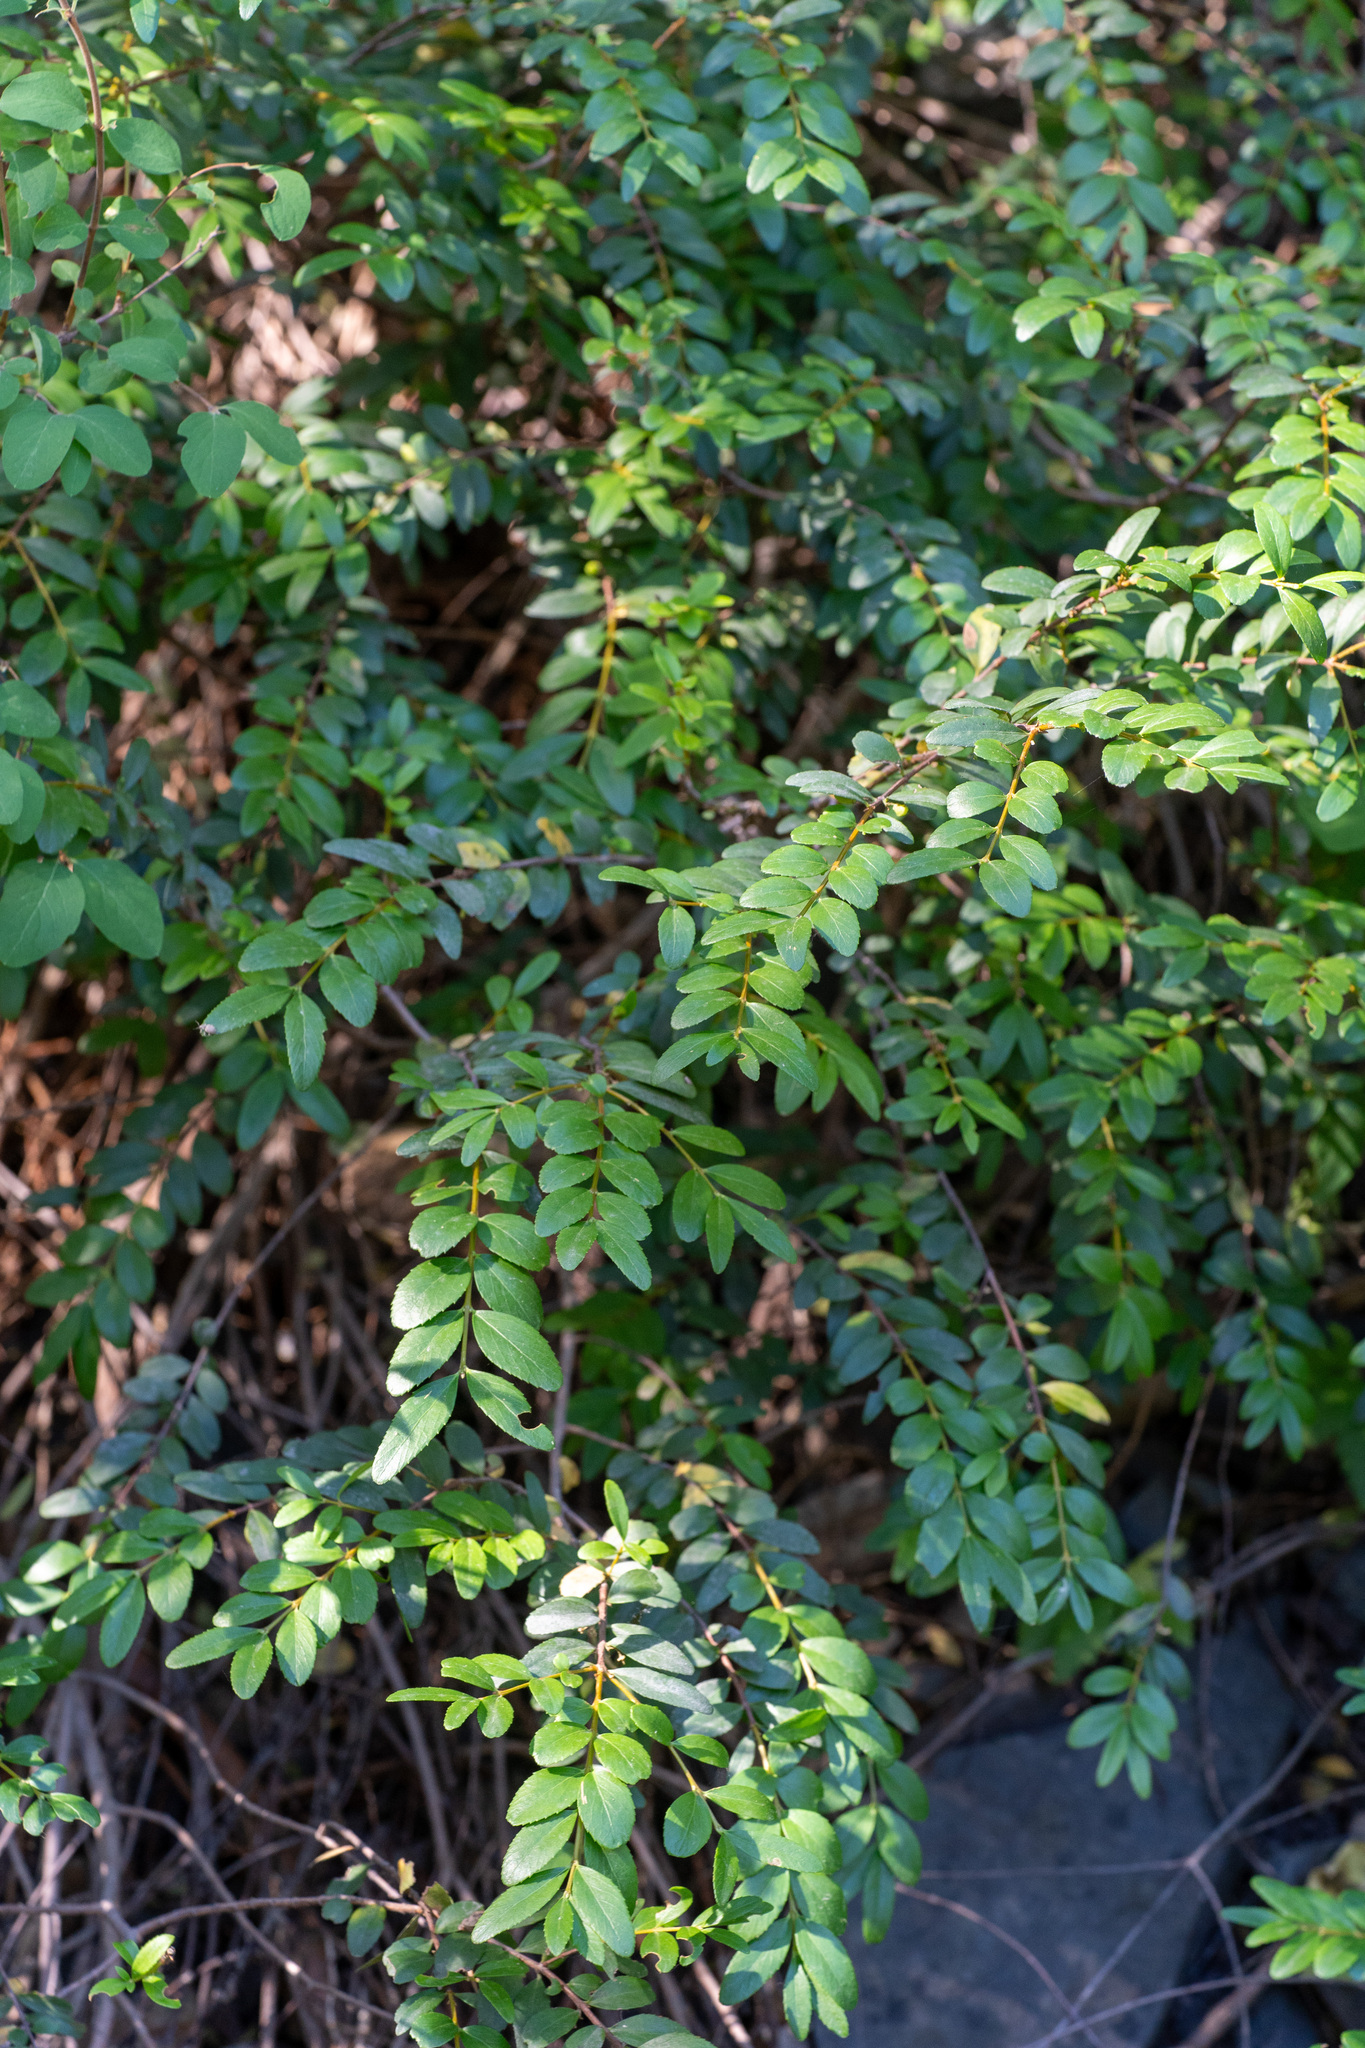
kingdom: Plantae
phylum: Tracheophyta
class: Magnoliopsida
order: Celastrales
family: Celastraceae
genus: Paxistima
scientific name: Paxistima myrsinites
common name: Mountain-lover
